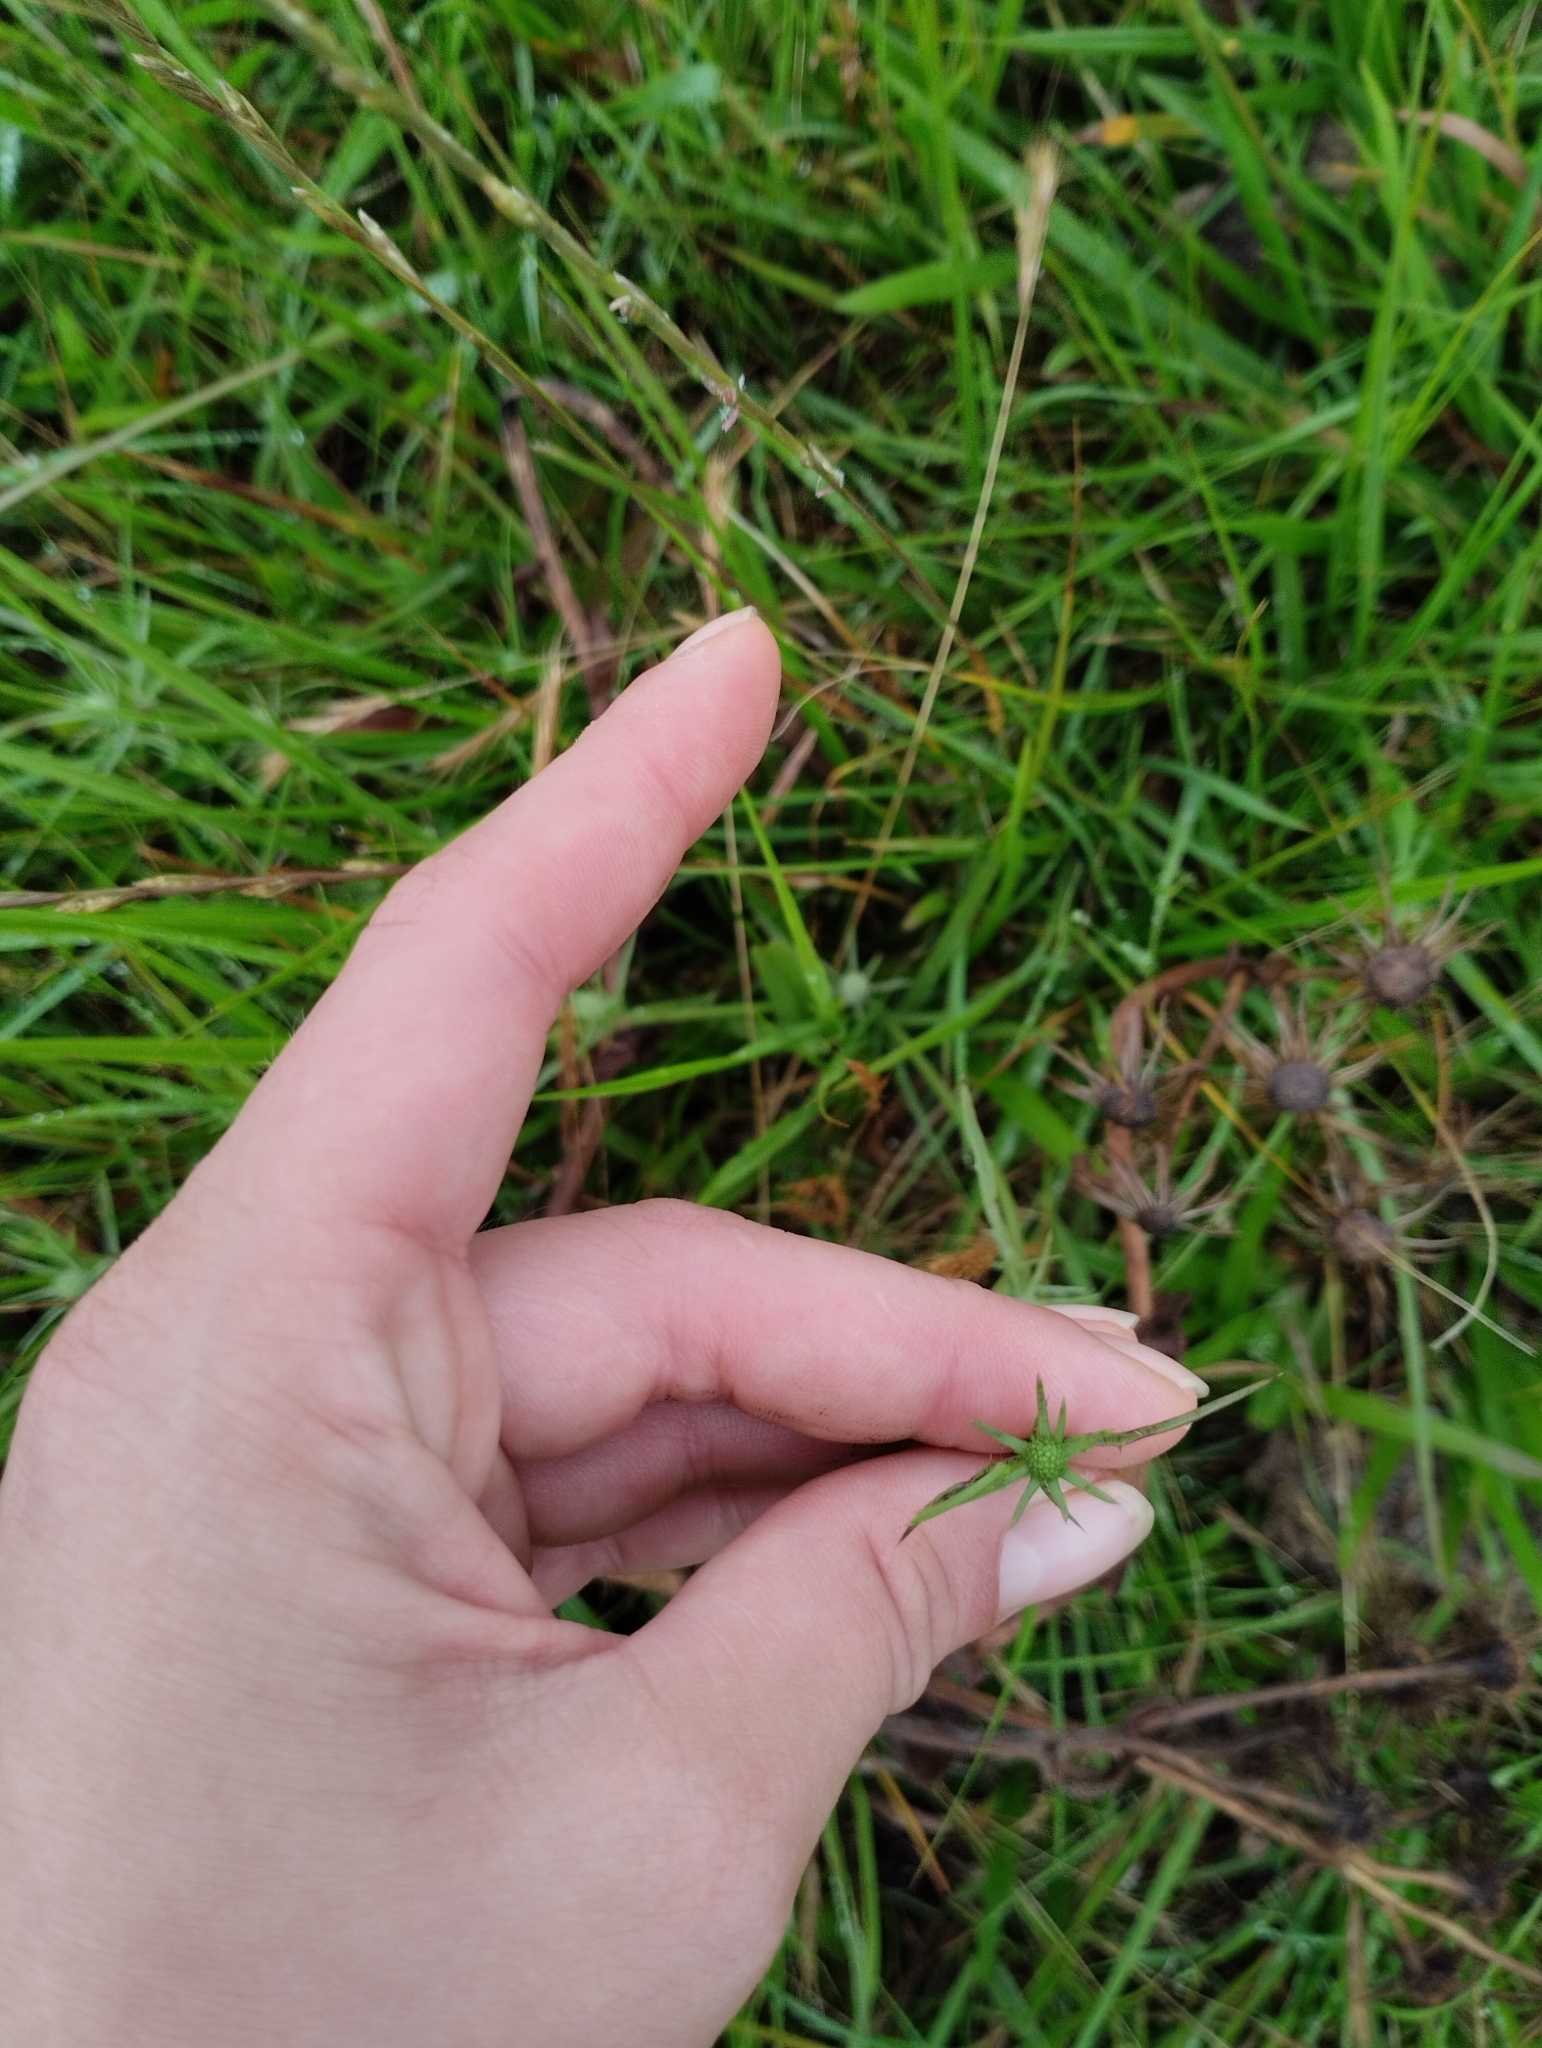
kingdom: Plantae
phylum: Tracheophyta
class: Magnoliopsida
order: Apiales
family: Apiaceae
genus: Eryngium
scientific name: Eryngium echinatum
